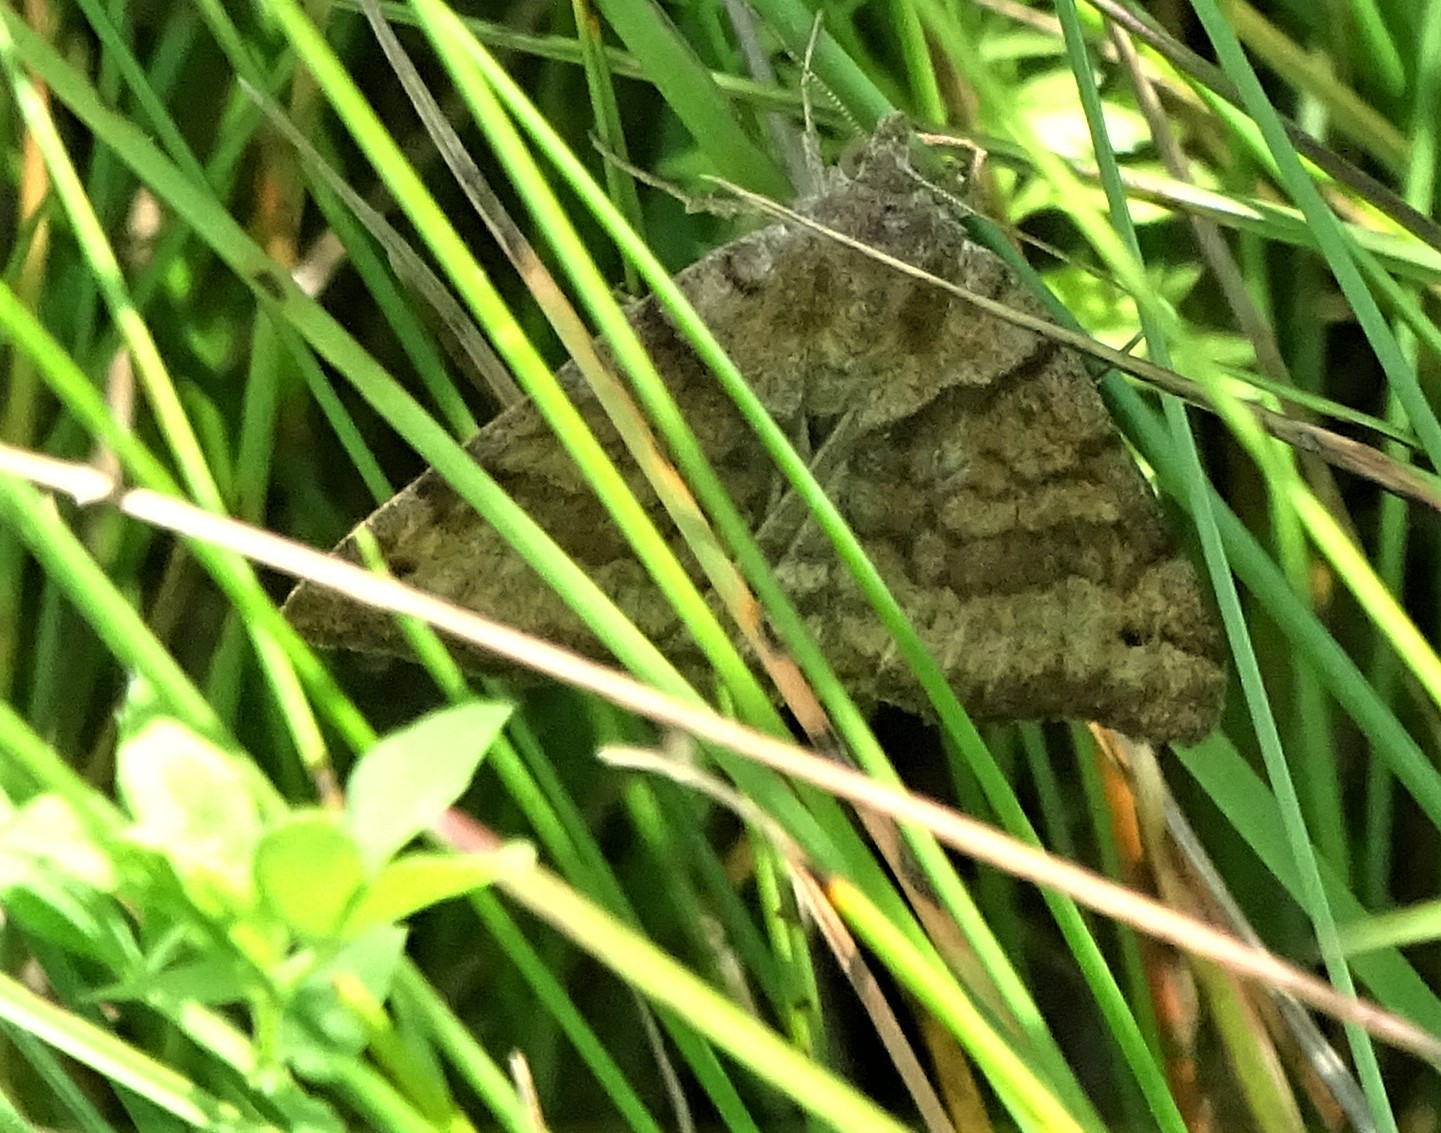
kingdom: Animalia
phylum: Arthropoda
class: Insecta
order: Lepidoptera
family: Erebidae
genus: Caenurgina
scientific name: Caenurgina crassiuscula
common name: Double-barred
